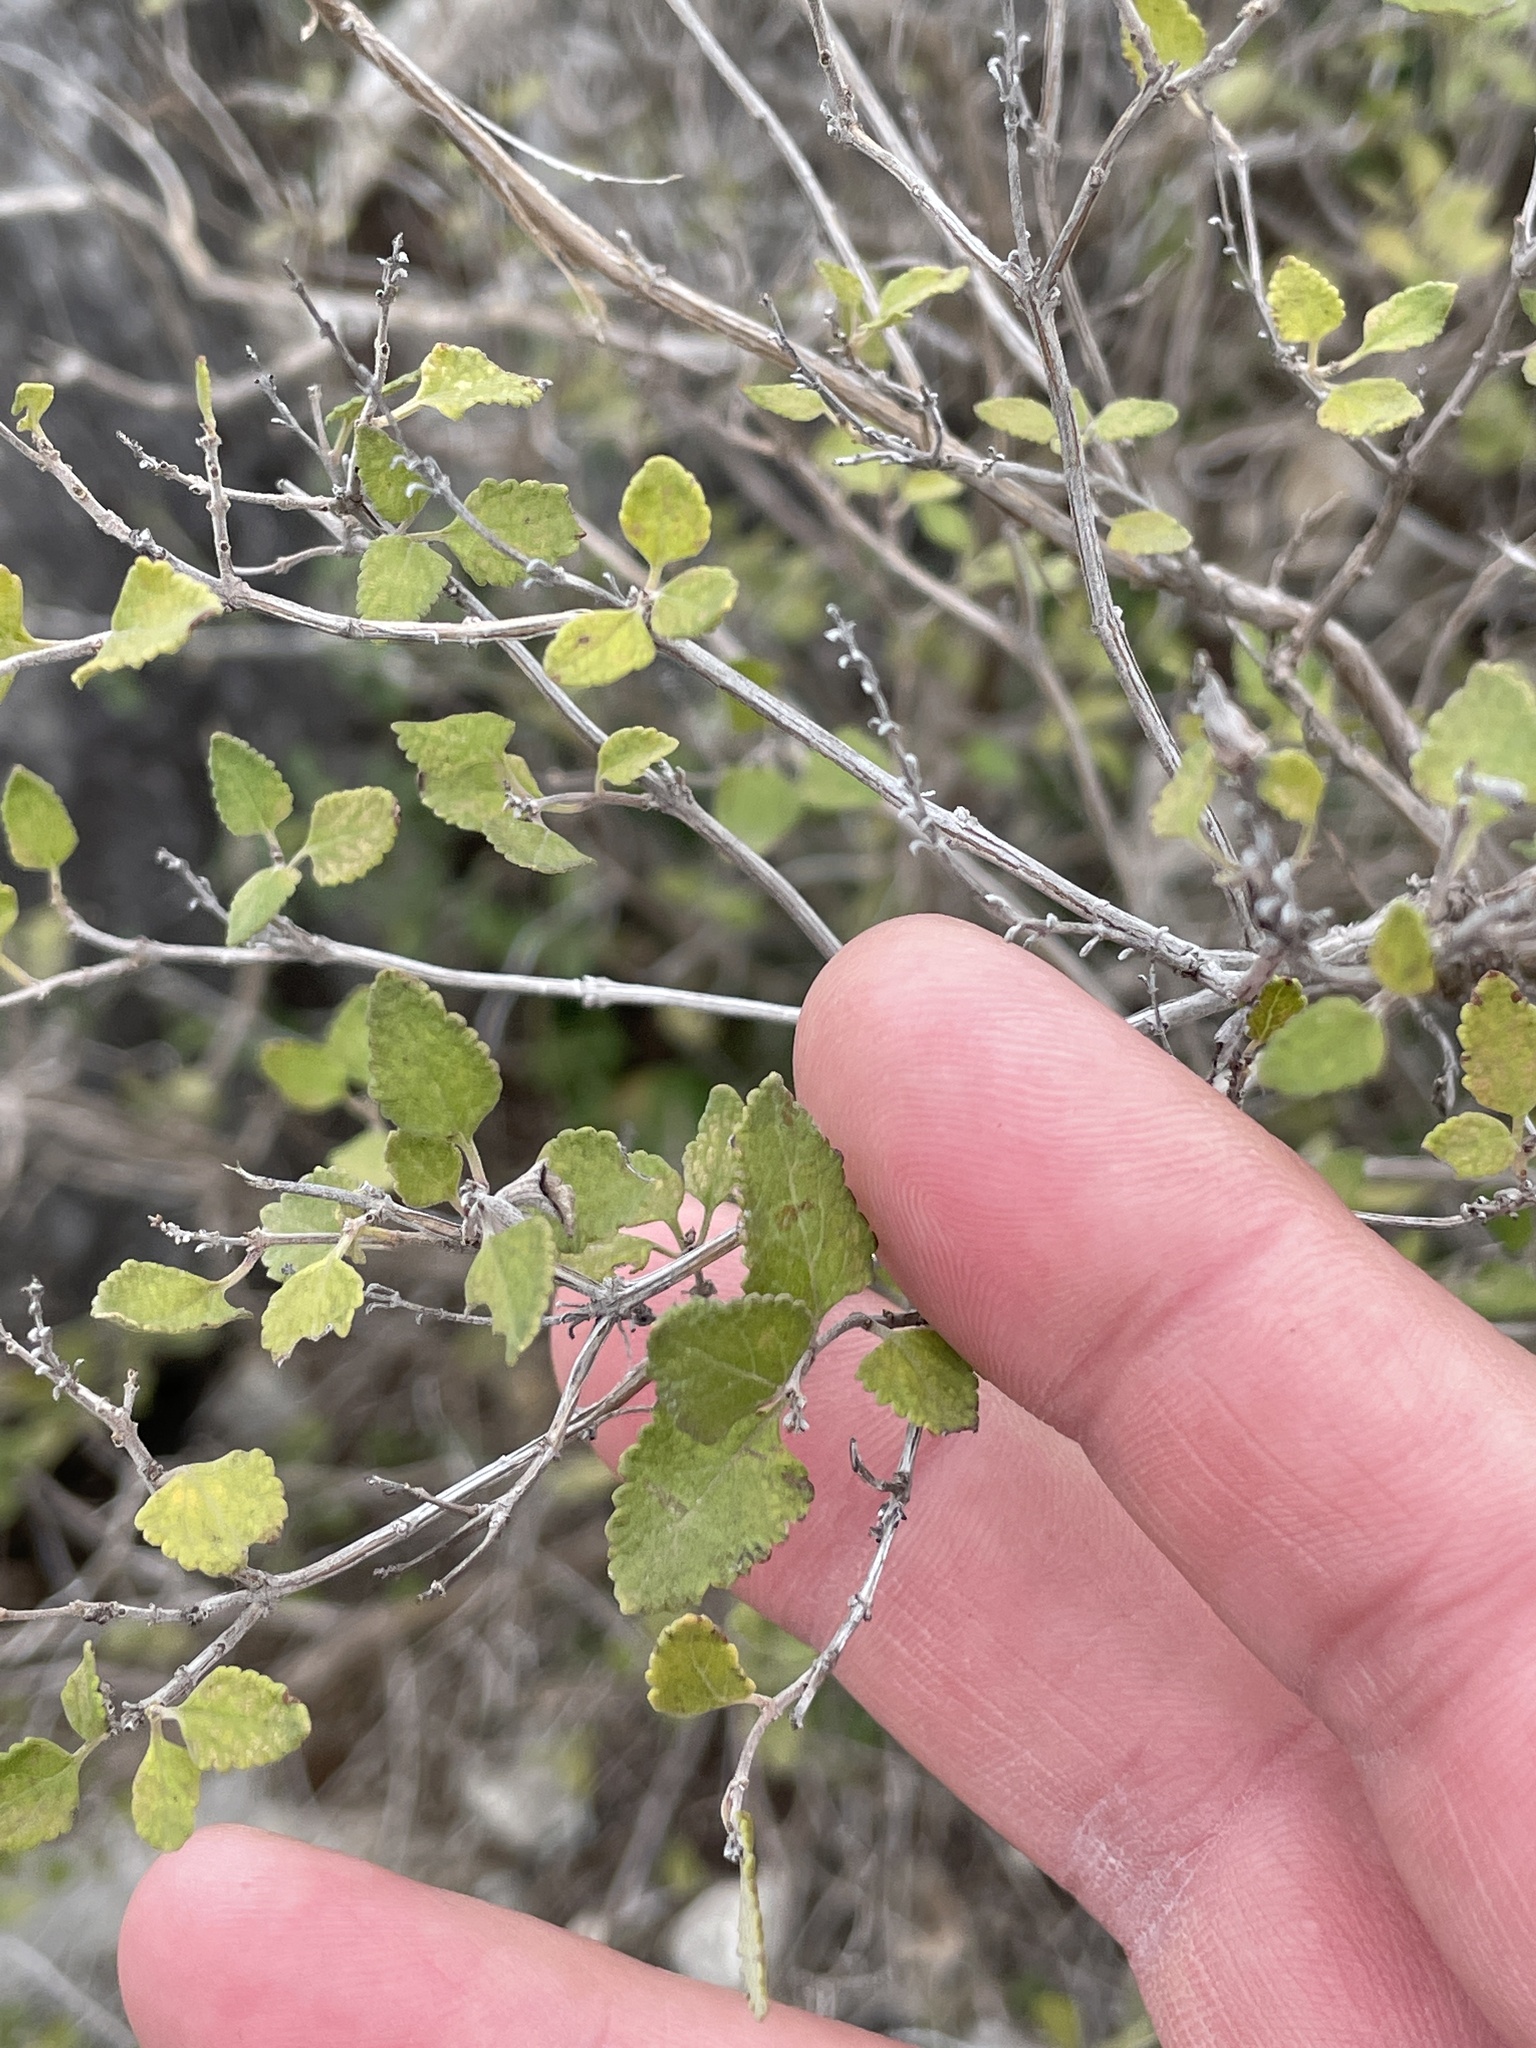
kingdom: Plantae
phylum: Tracheophyta
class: Magnoliopsida
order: Lamiales
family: Lamiaceae
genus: Salvia
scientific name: Salvia ballotiflora
